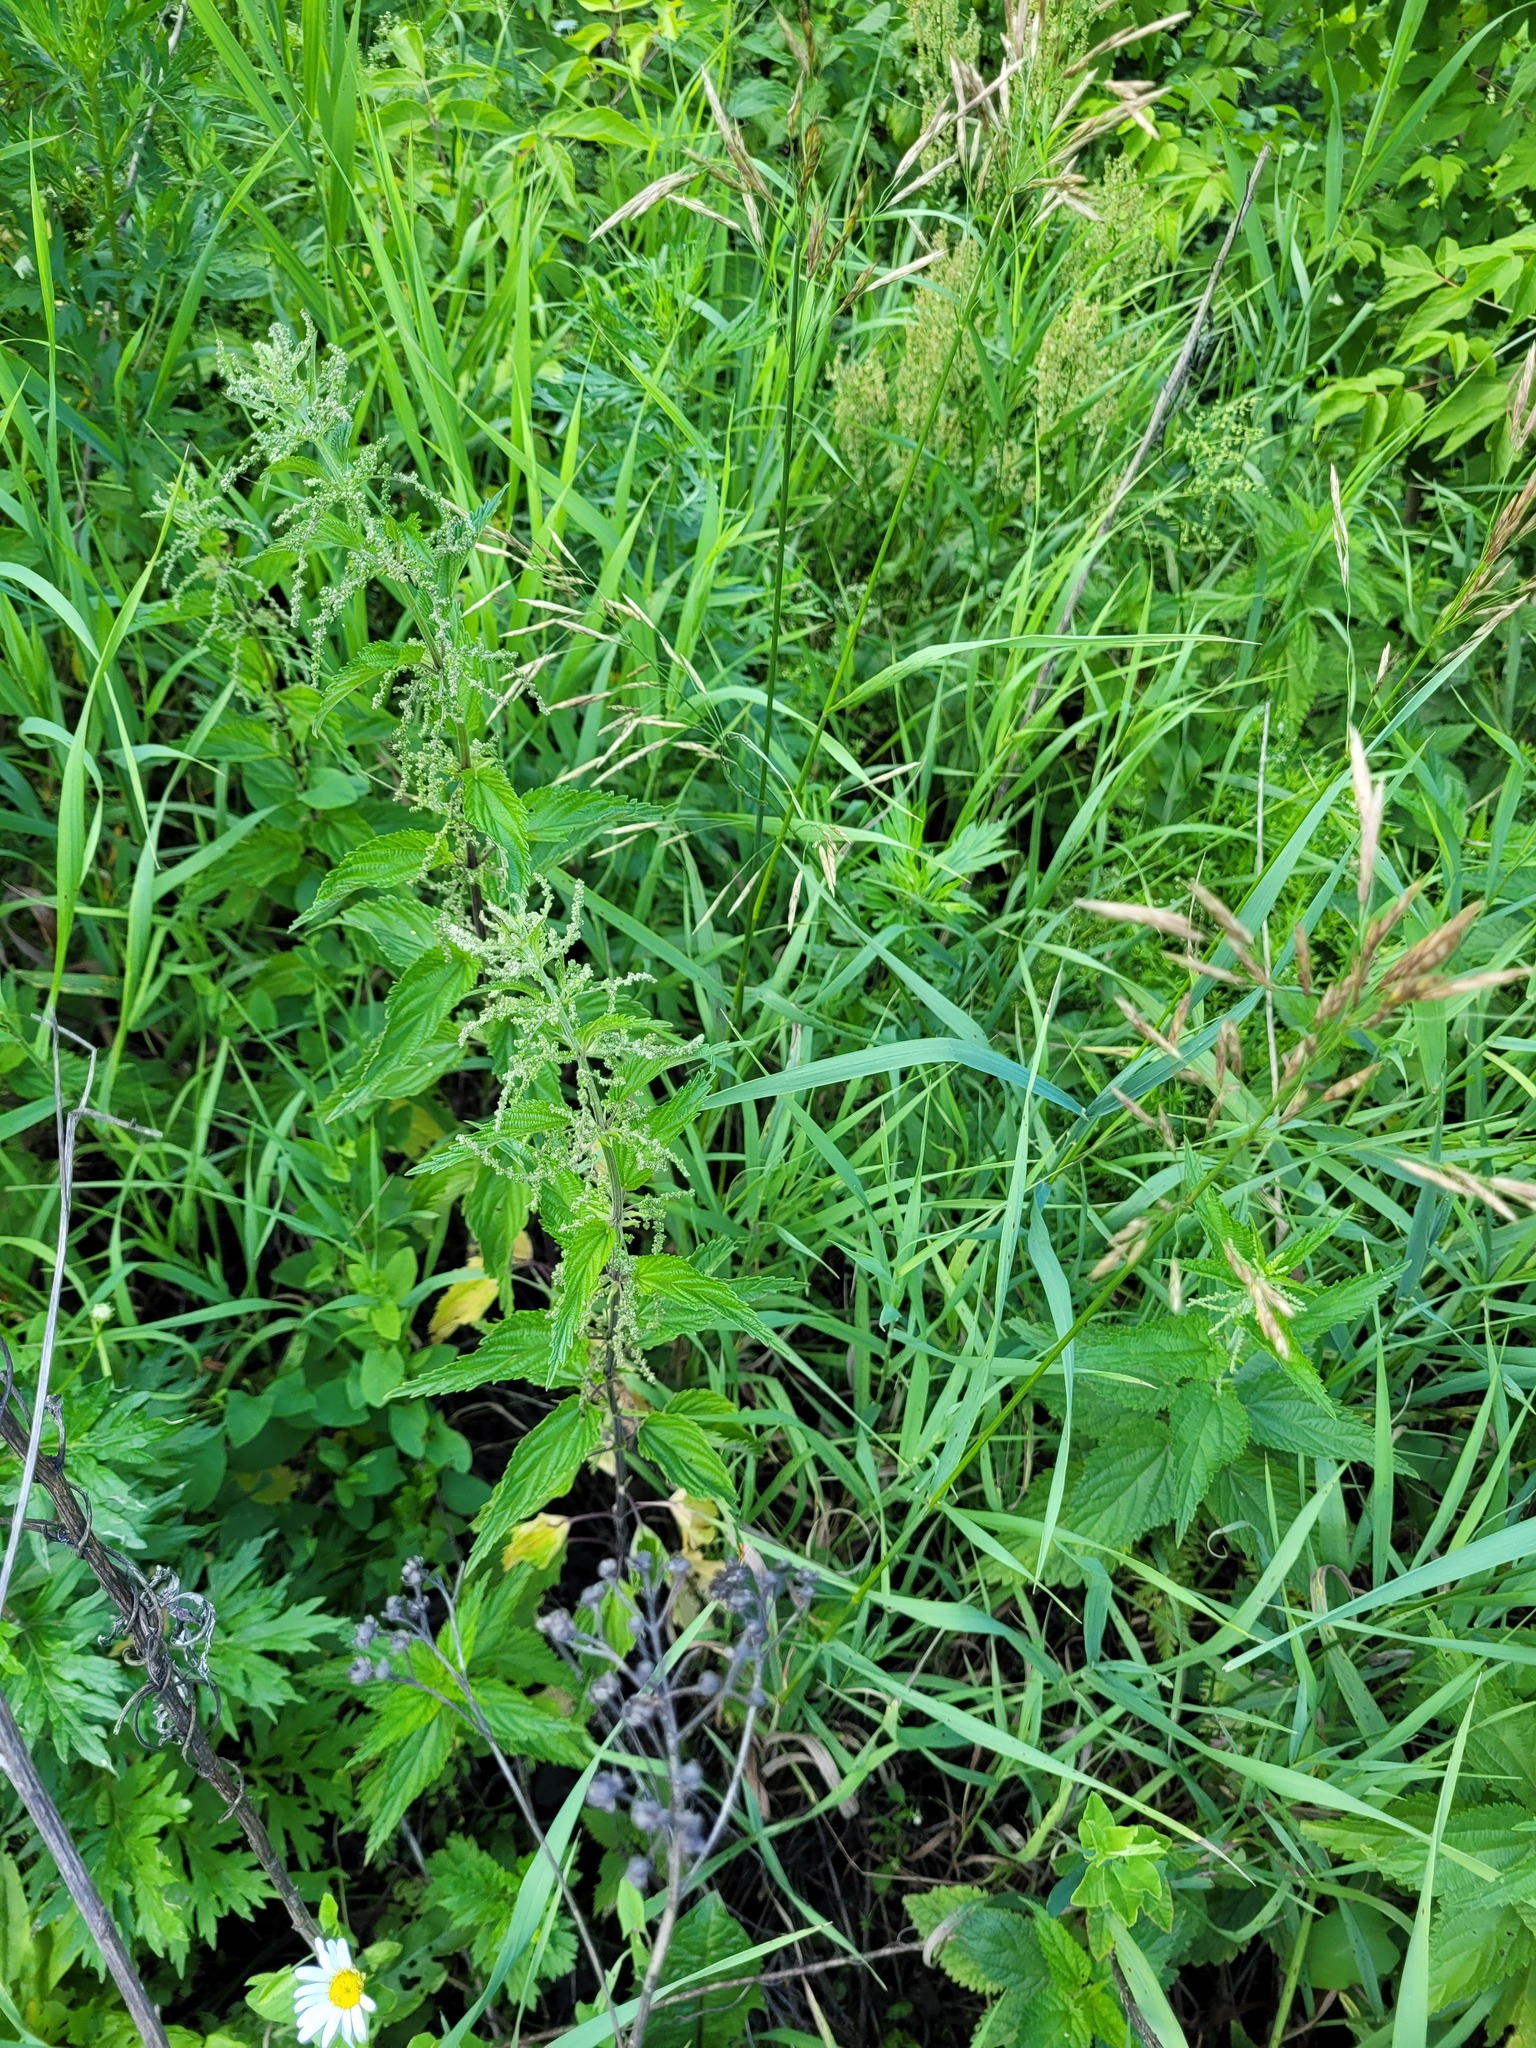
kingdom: Plantae
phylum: Tracheophyta
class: Magnoliopsida
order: Rosales
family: Urticaceae
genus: Urtica
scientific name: Urtica dioica
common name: Common nettle
